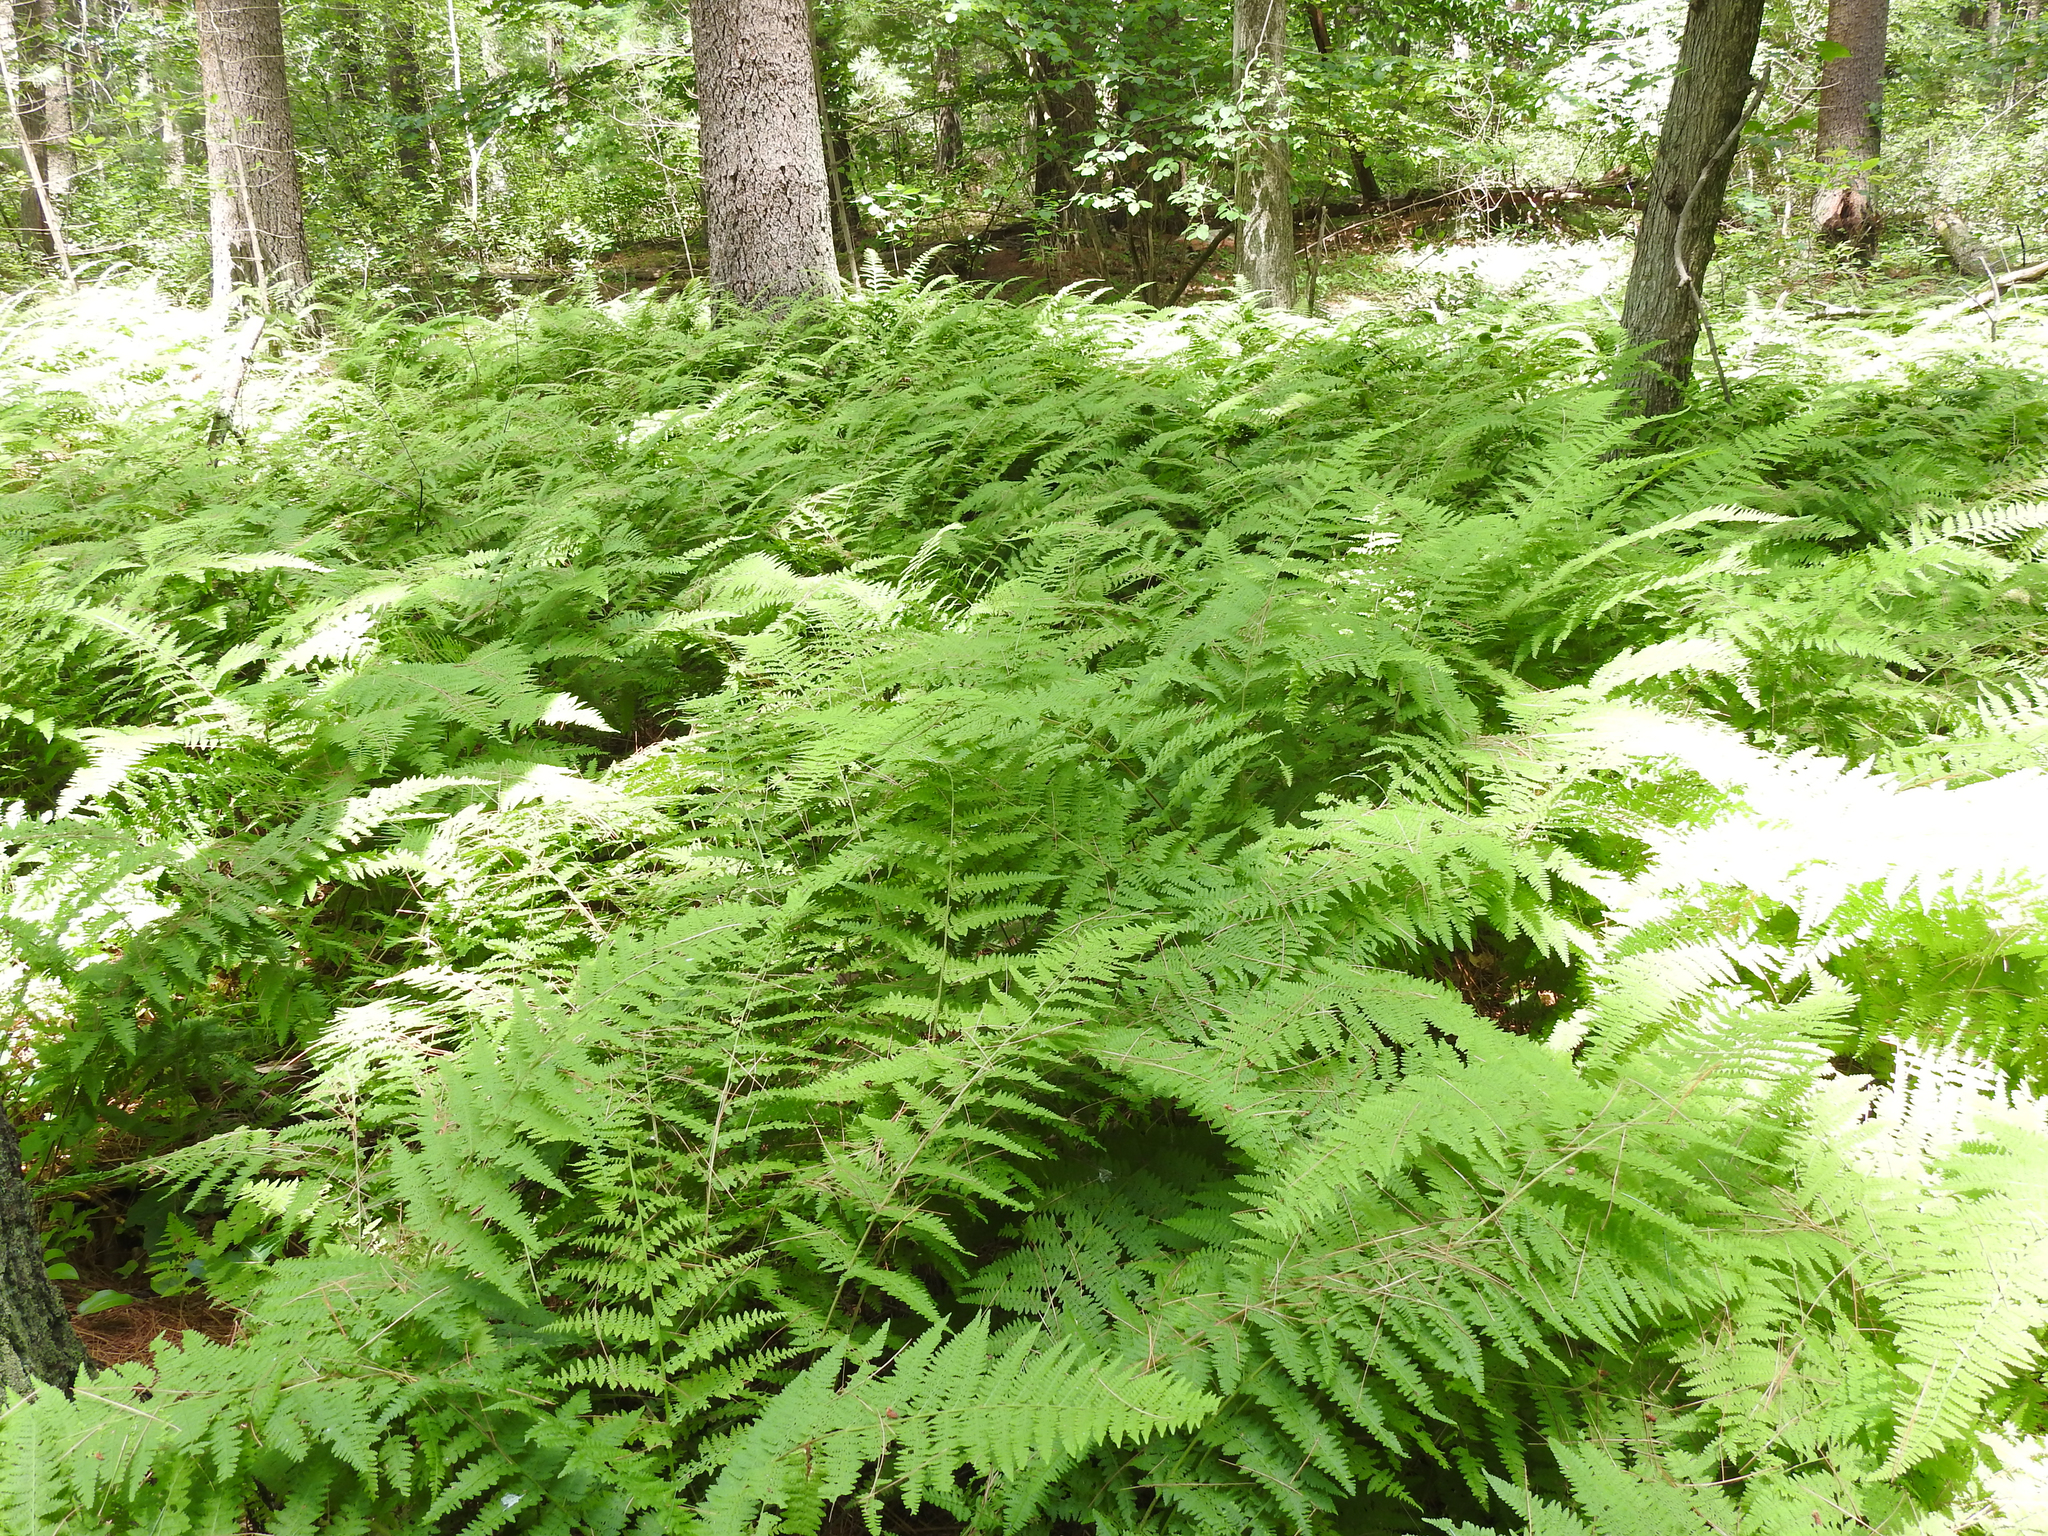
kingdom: Plantae
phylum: Tracheophyta
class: Polypodiopsida
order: Polypodiales
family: Dennstaedtiaceae
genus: Sitobolium
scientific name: Sitobolium punctilobum
